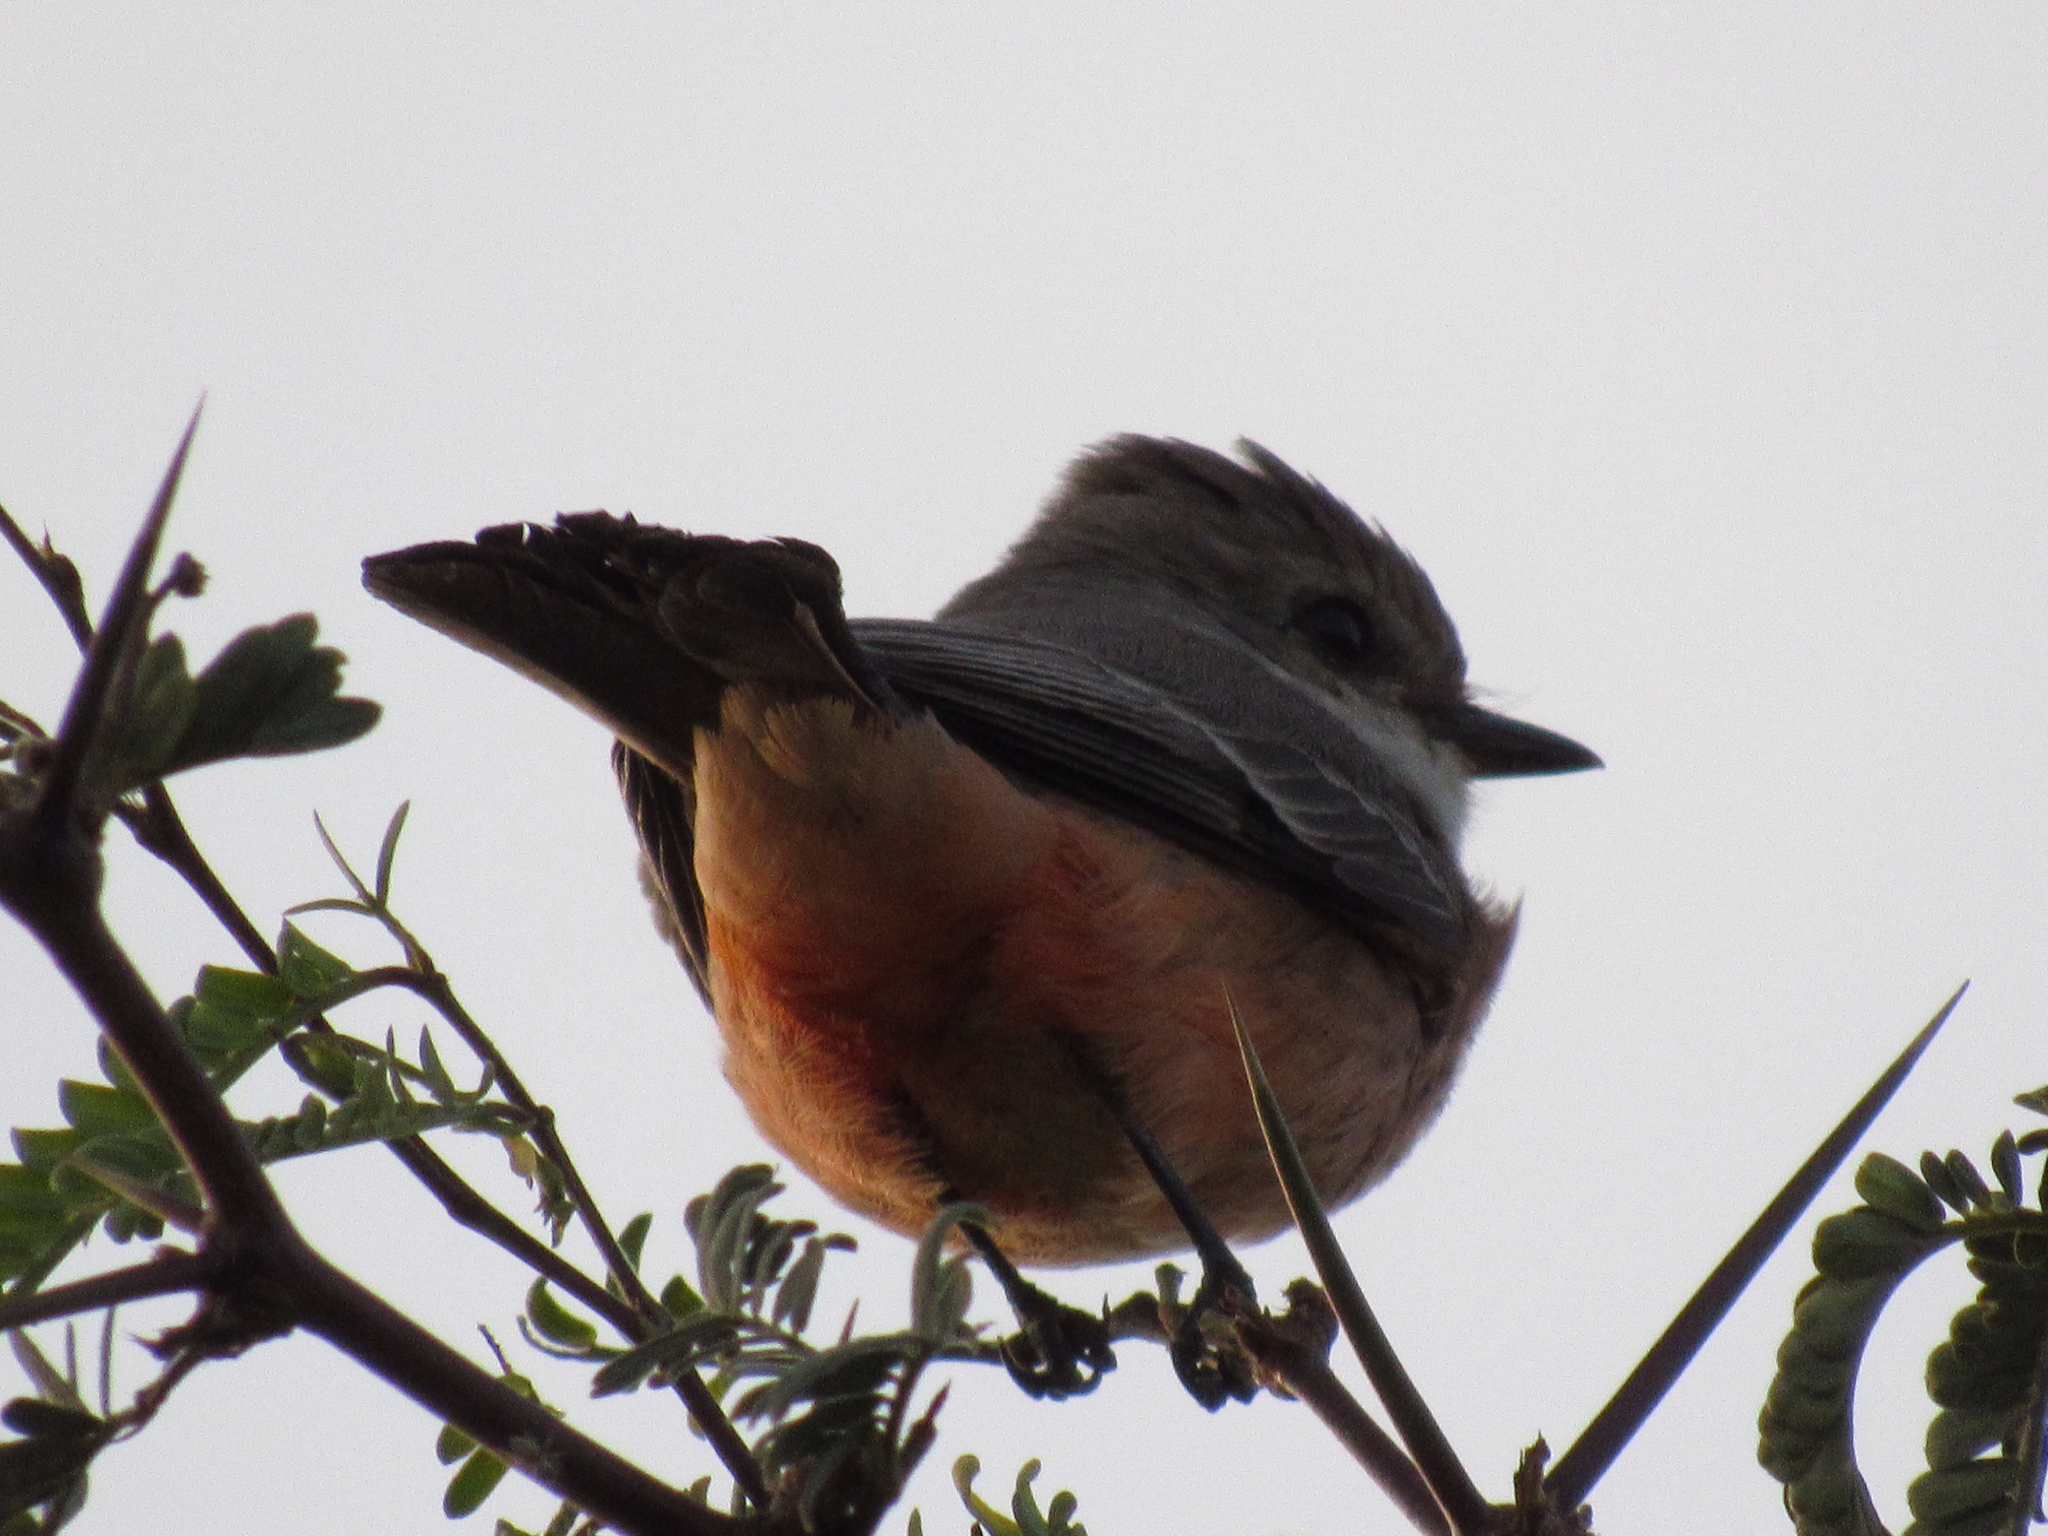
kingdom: Animalia
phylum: Chordata
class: Aves
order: Passeriformes
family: Tyrannidae
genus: Pyrocephalus
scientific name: Pyrocephalus rubinus
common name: Vermilion flycatcher
